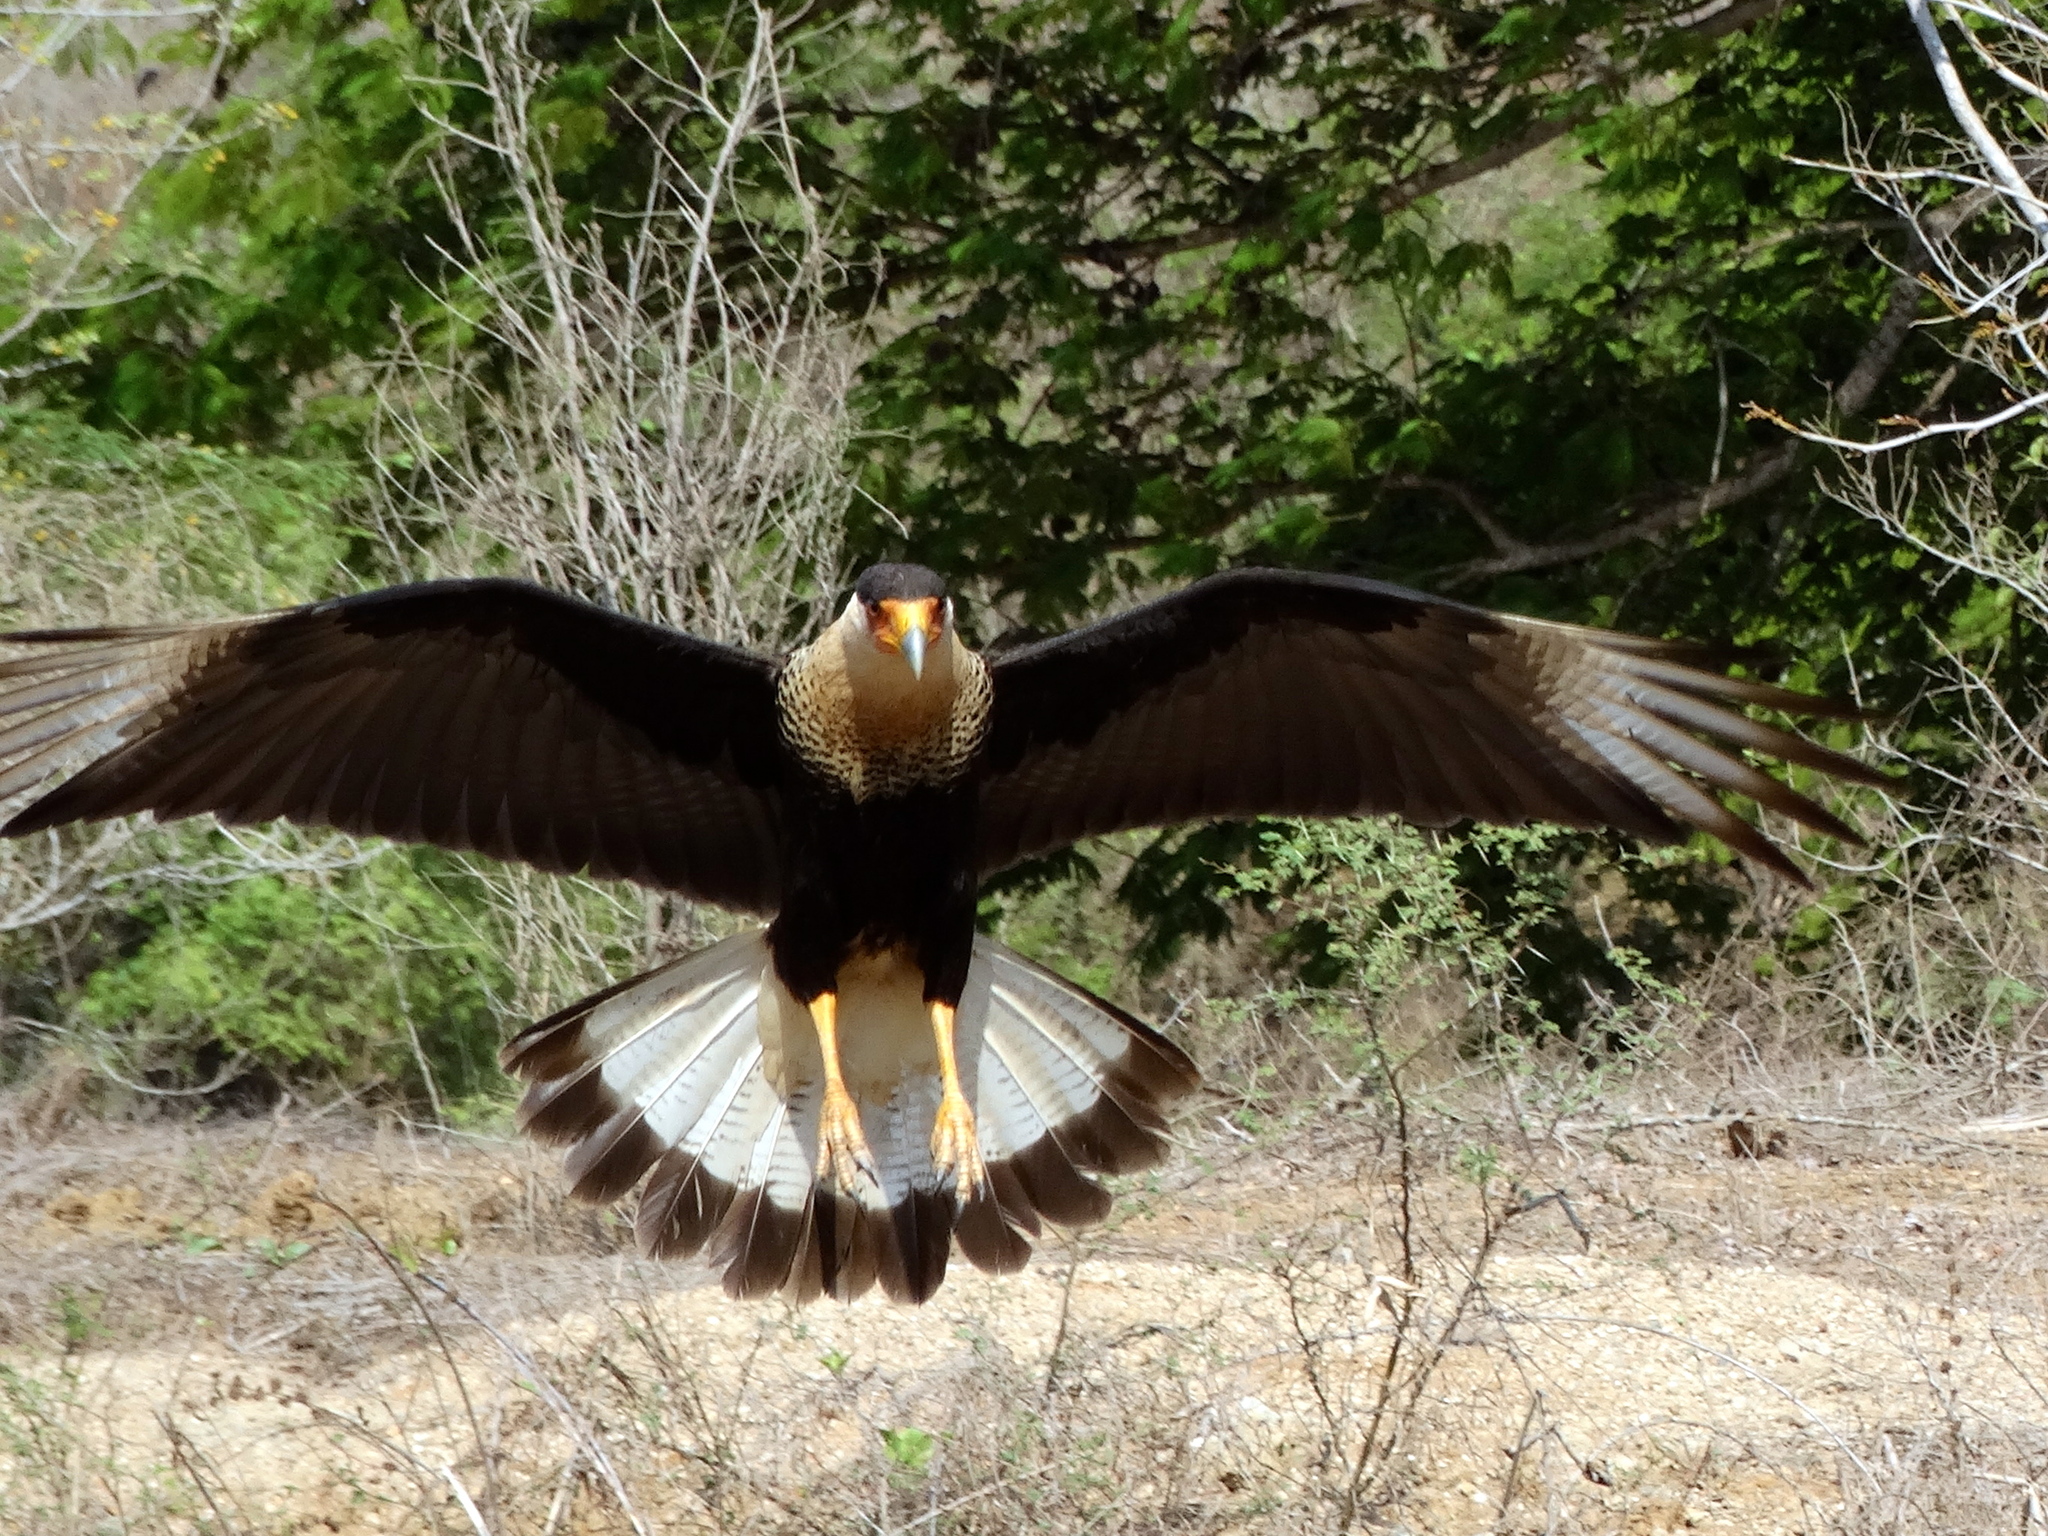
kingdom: Animalia
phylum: Chordata
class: Aves
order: Falconiformes
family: Falconidae
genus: Caracara
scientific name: Caracara plancus
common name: Southern caracara
